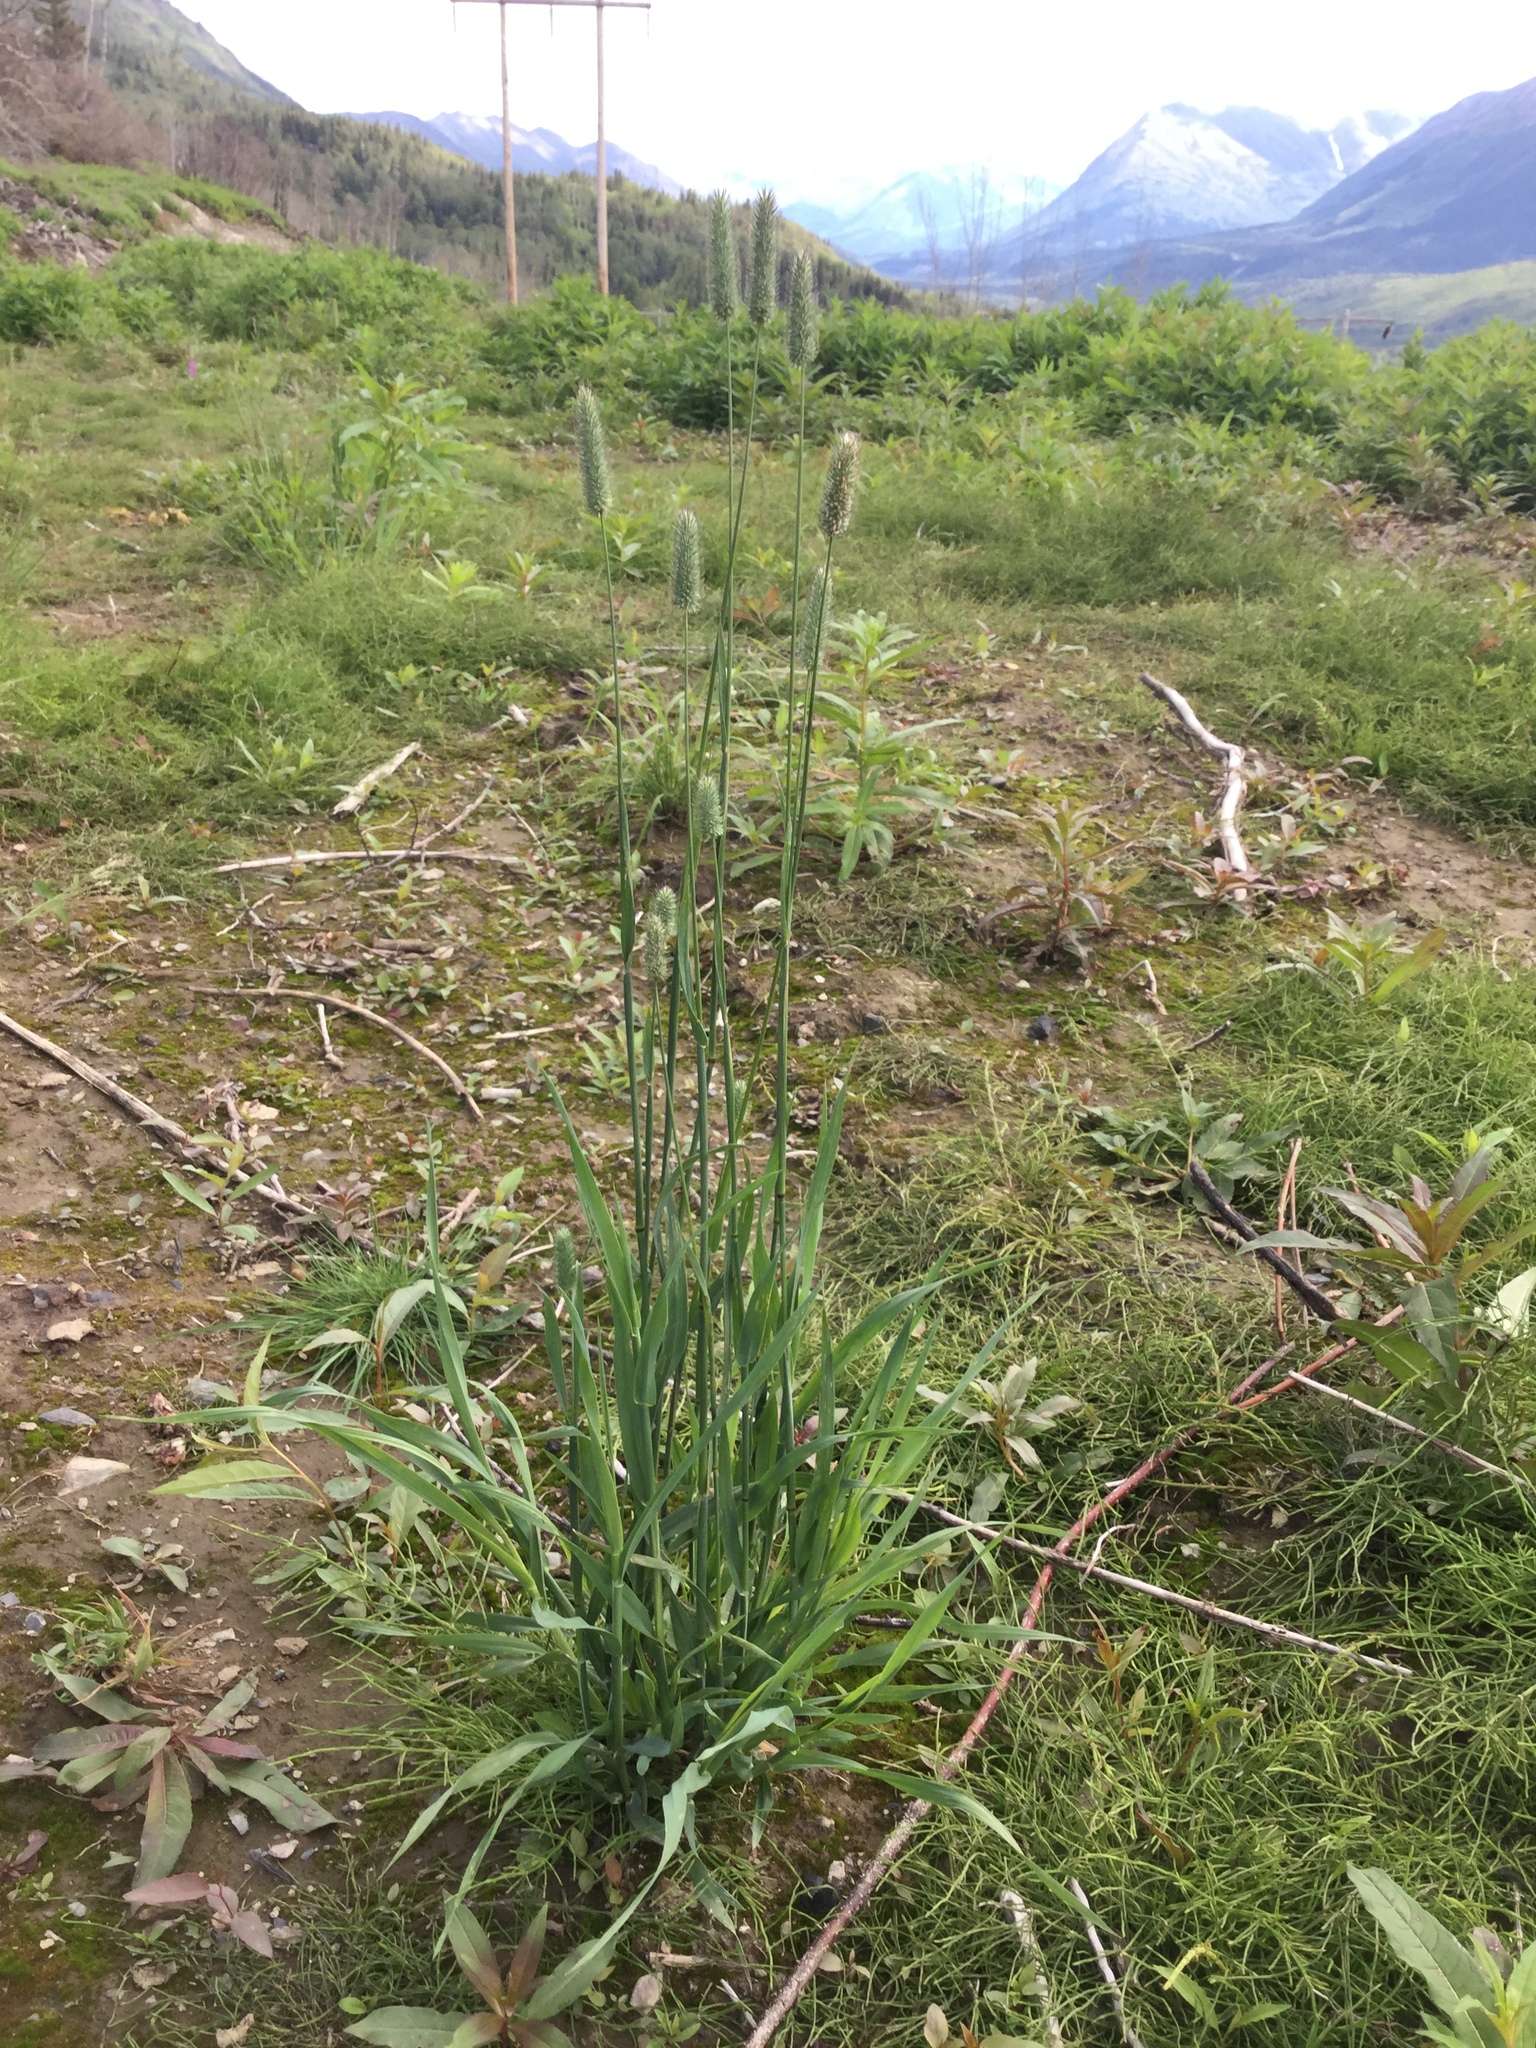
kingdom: Plantae
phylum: Tracheophyta
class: Liliopsida
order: Poales
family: Poaceae
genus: Phleum
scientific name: Phleum pratense
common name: Timothy grass
